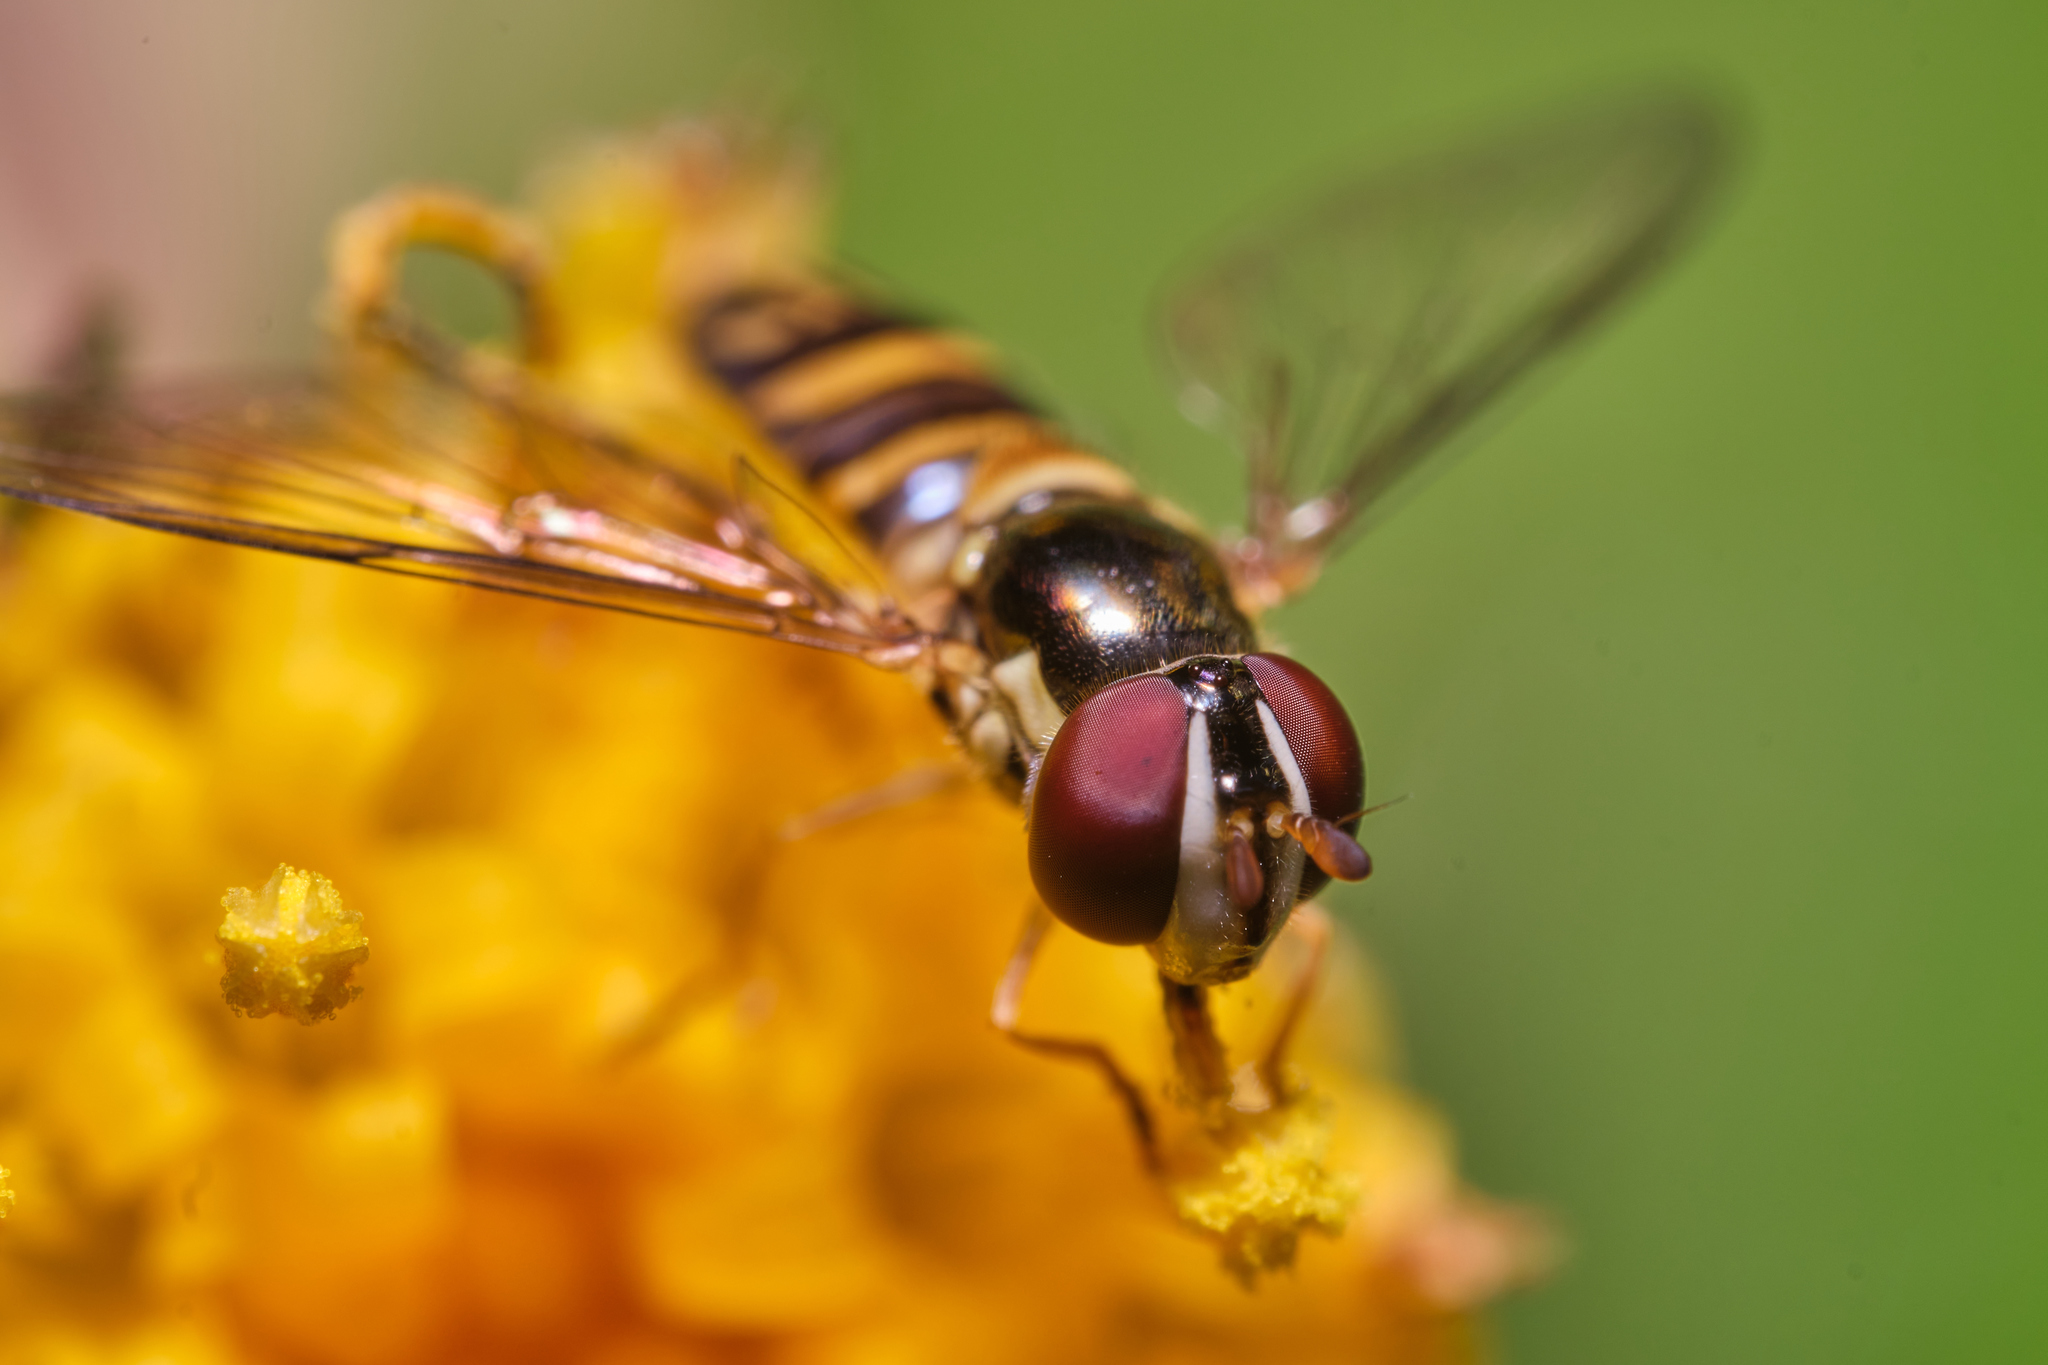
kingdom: Animalia
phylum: Arthropoda
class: Insecta
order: Diptera
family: Syrphidae
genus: Allograpta
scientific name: Allograpta obliqua
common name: Common oblique syrphid
